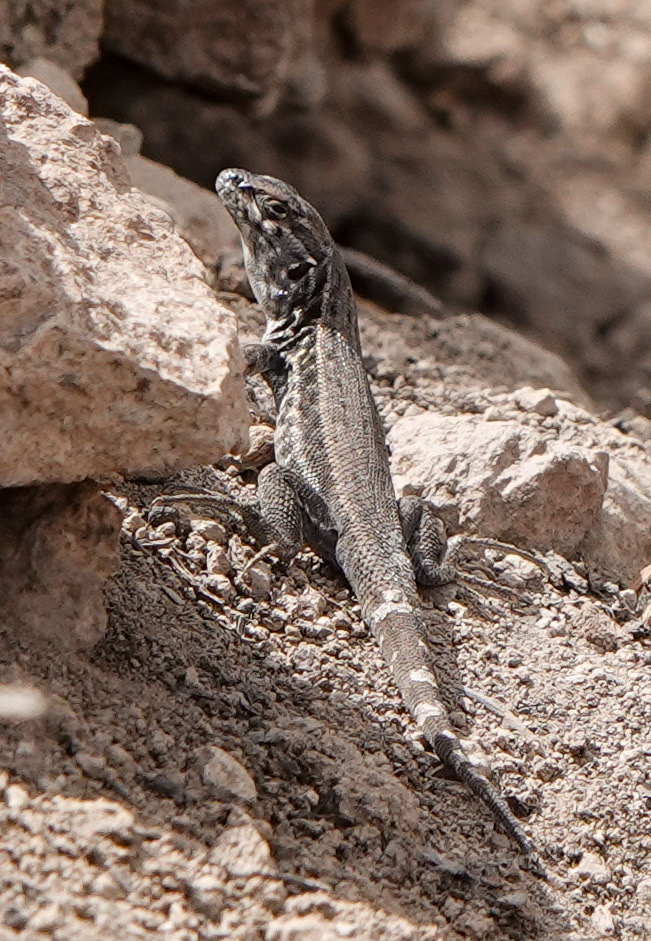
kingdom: Animalia
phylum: Chordata
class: Squamata
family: Liolaemidae
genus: Liolaemus
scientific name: Liolaemus nigroviridis
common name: Black-green tree iguana
